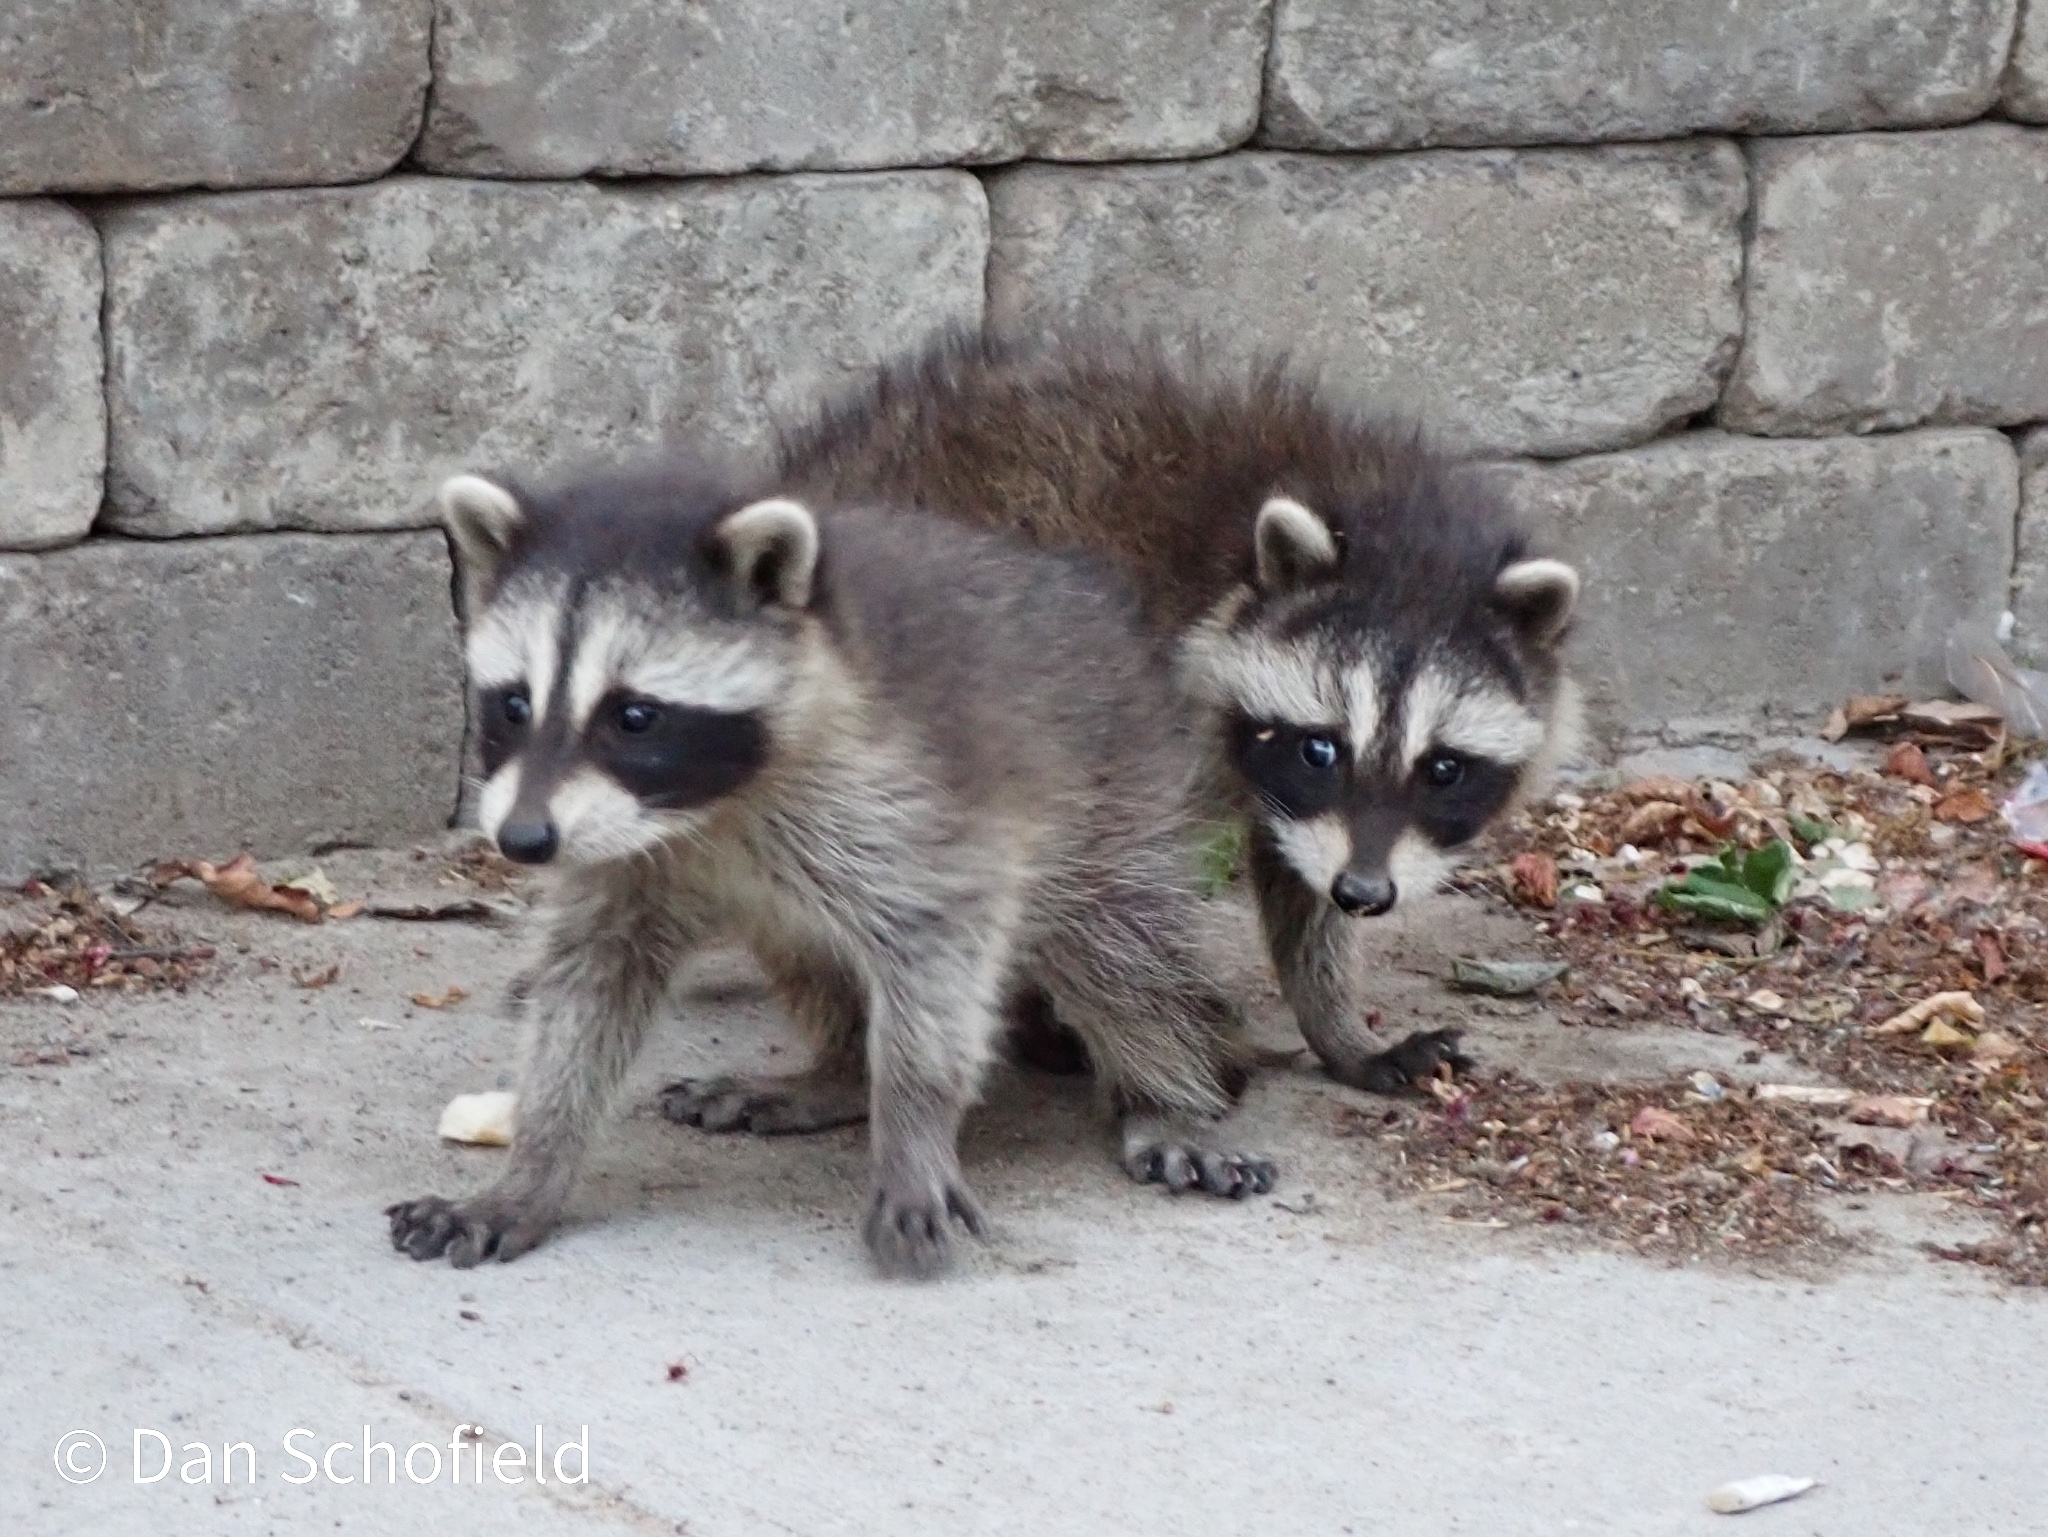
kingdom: Animalia
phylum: Chordata
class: Mammalia
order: Carnivora
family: Procyonidae
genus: Procyon
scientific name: Procyon lotor
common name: Raccoon
